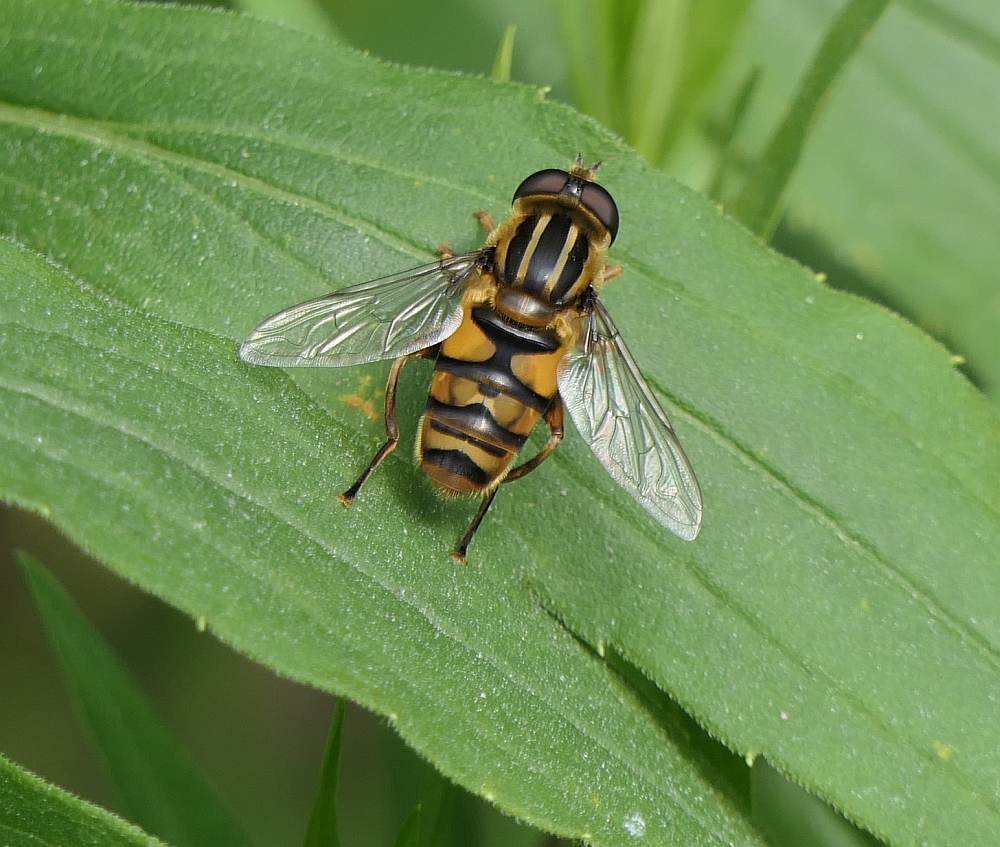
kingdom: Animalia
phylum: Arthropoda
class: Insecta
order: Diptera
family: Syrphidae
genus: Helophilus
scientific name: Helophilus fasciatus
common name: Narrow-headed marsh fly
